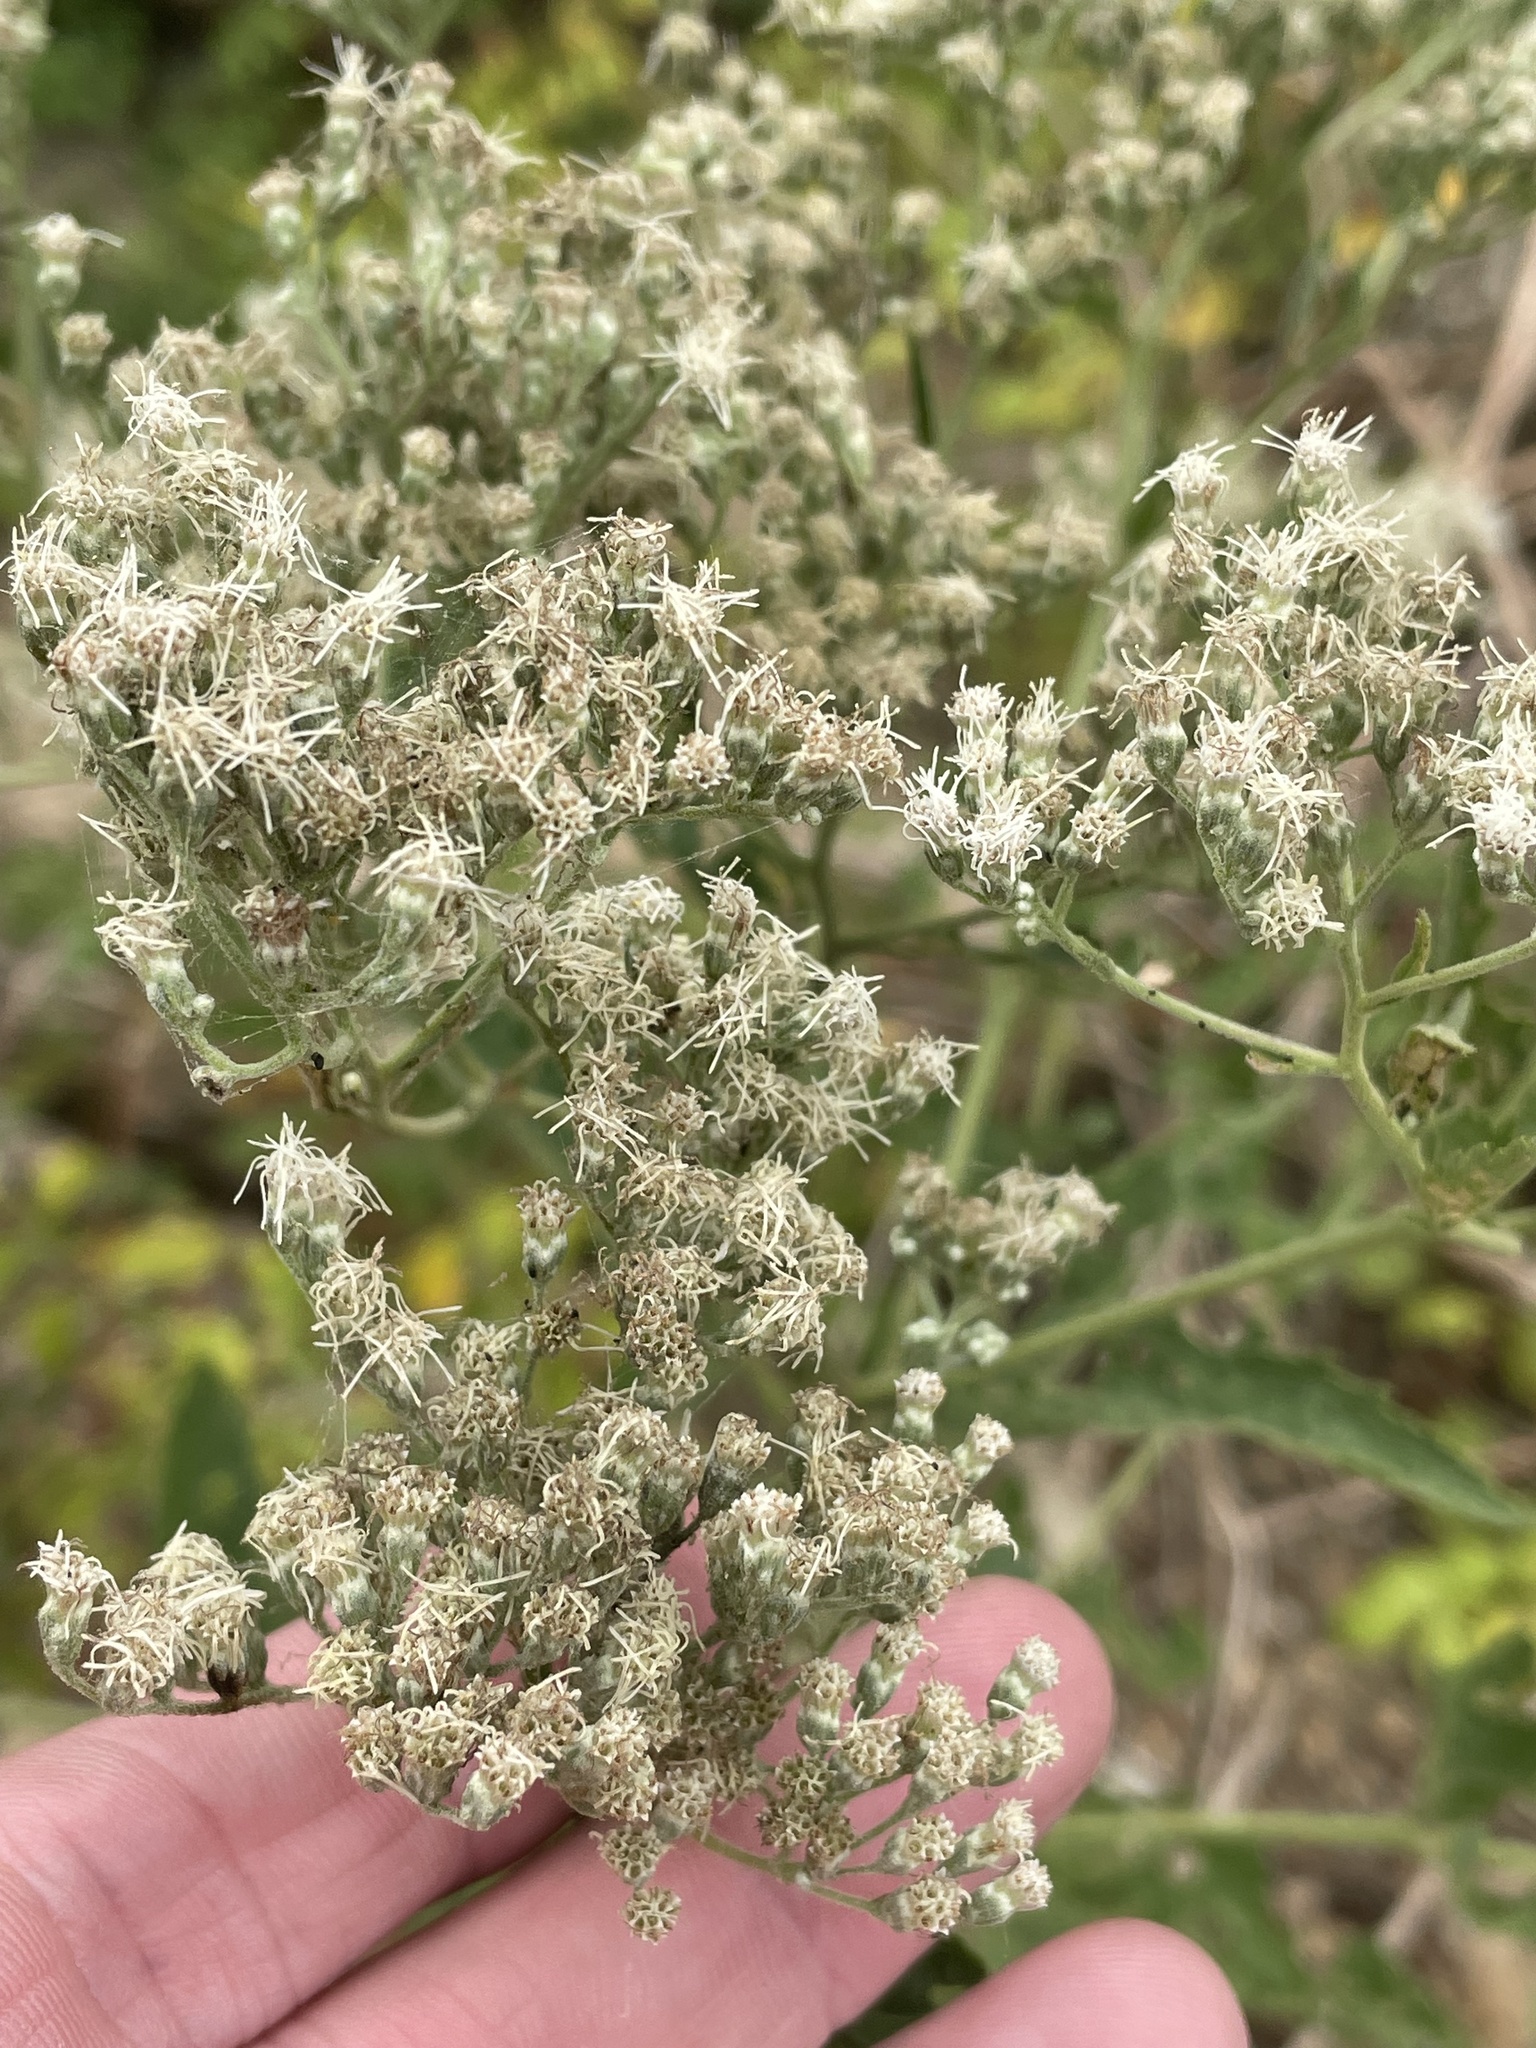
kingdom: Plantae
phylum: Tracheophyta
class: Magnoliopsida
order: Asterales
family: Asteraceae
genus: Eupatorium
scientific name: Eupatorium serotinum
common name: Late boneset
